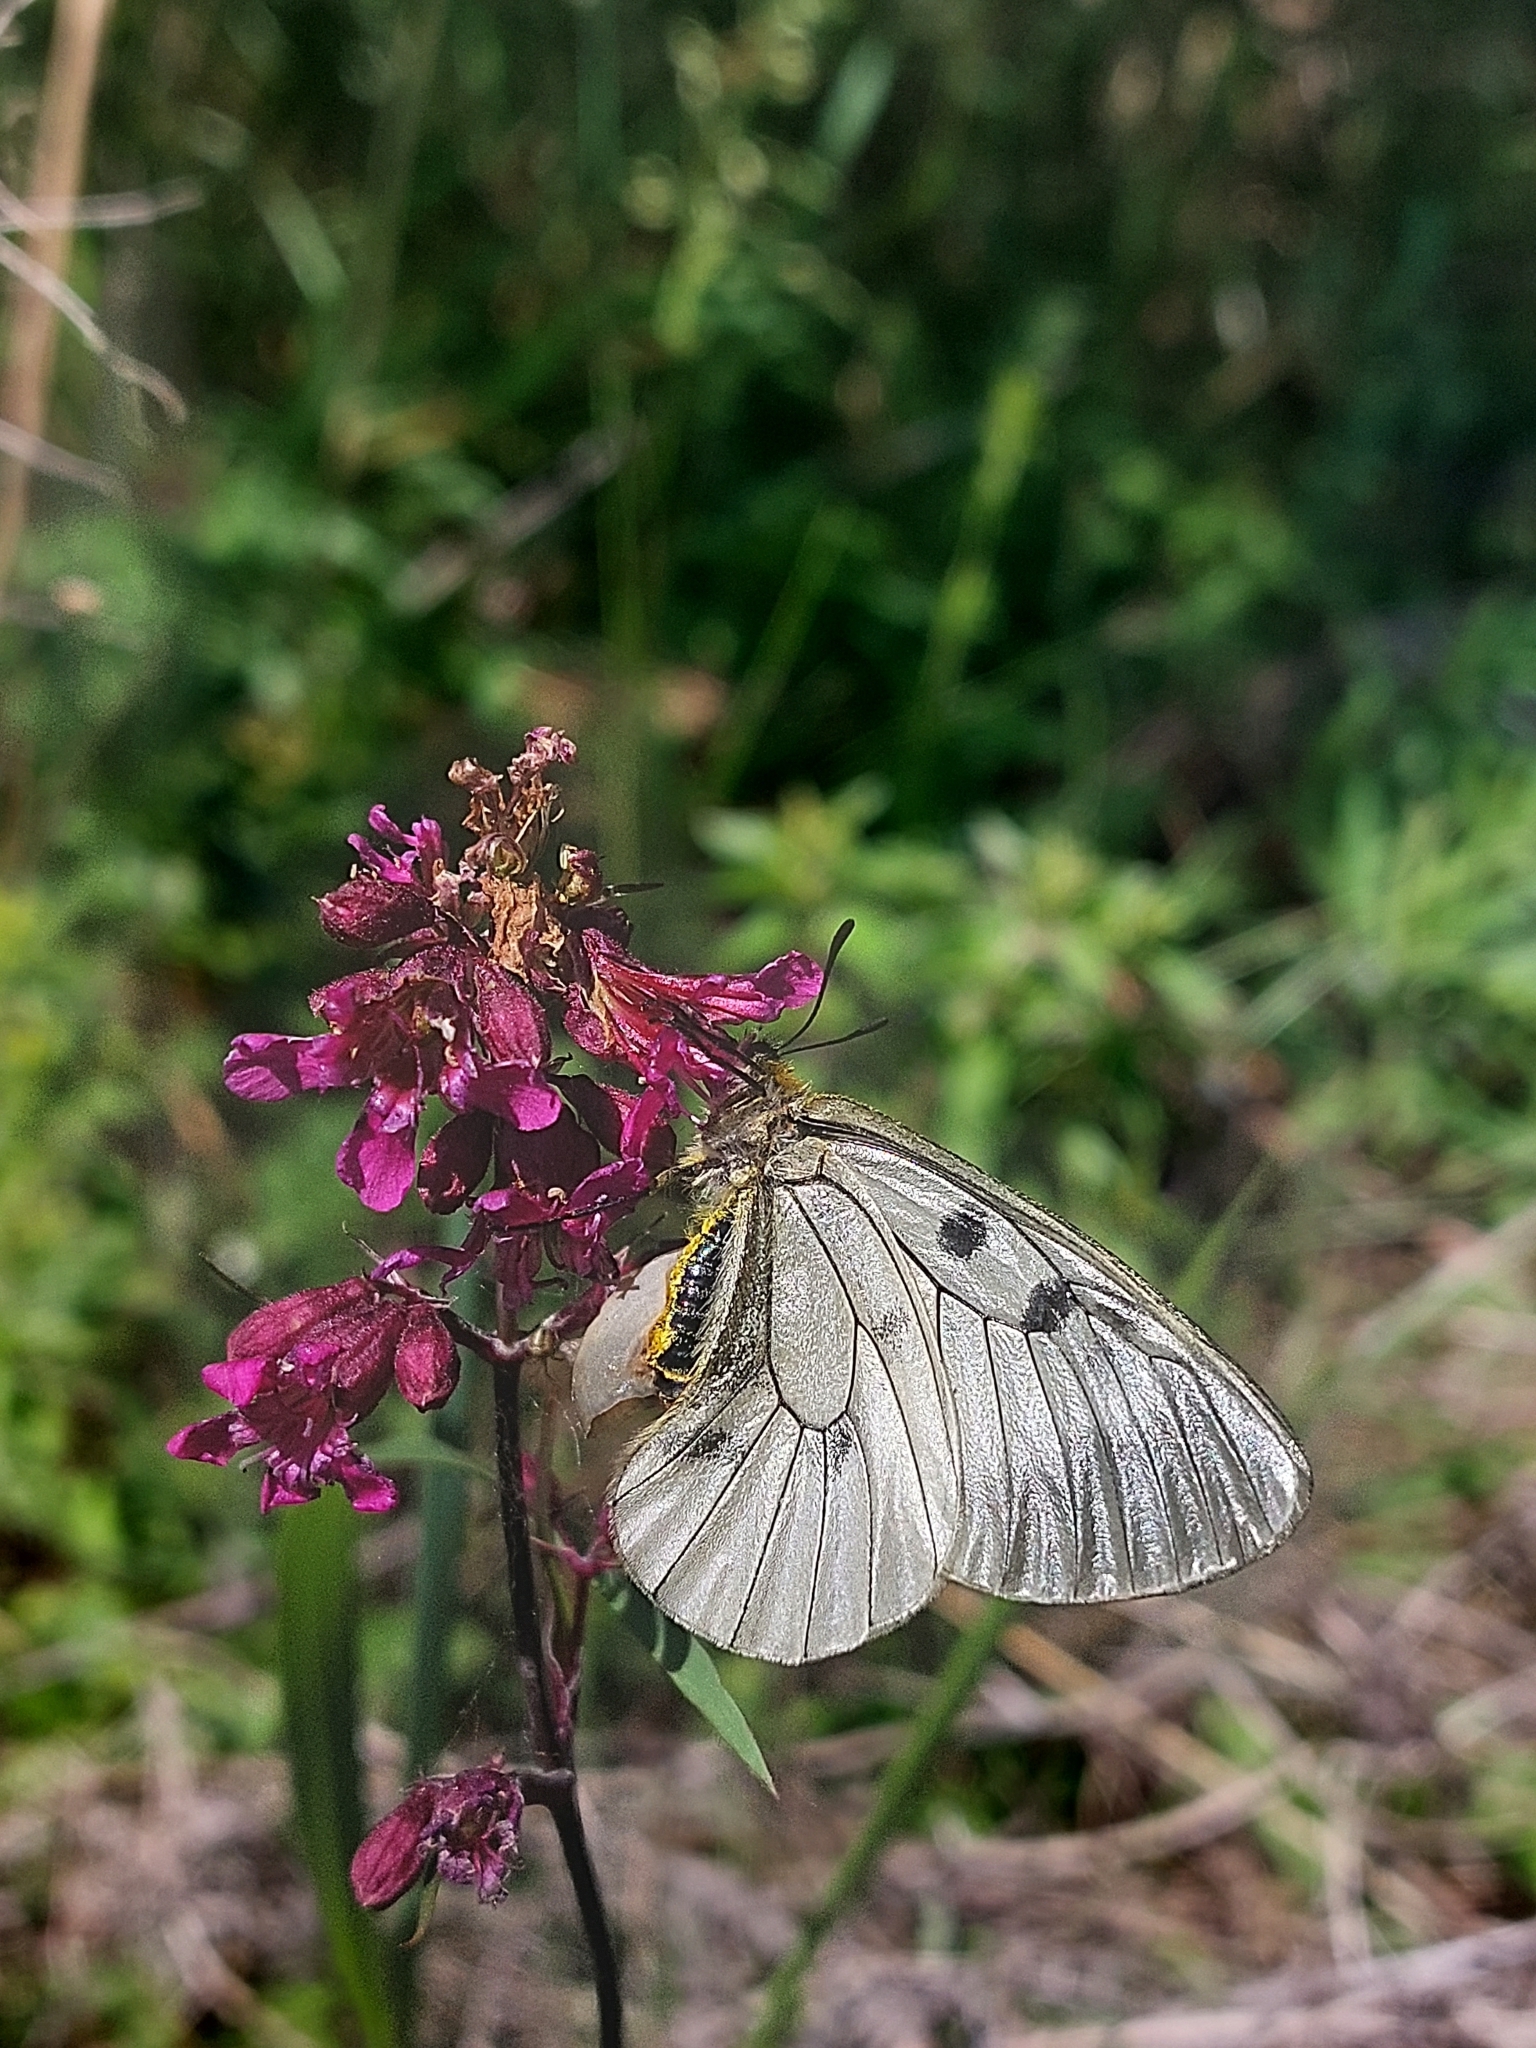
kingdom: Animalia
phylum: Arthropoda
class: Insecta
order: Lepidoptera
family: Papilionidae
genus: Parnassius
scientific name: Parnassius mnemosyne
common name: Clouded apollo
